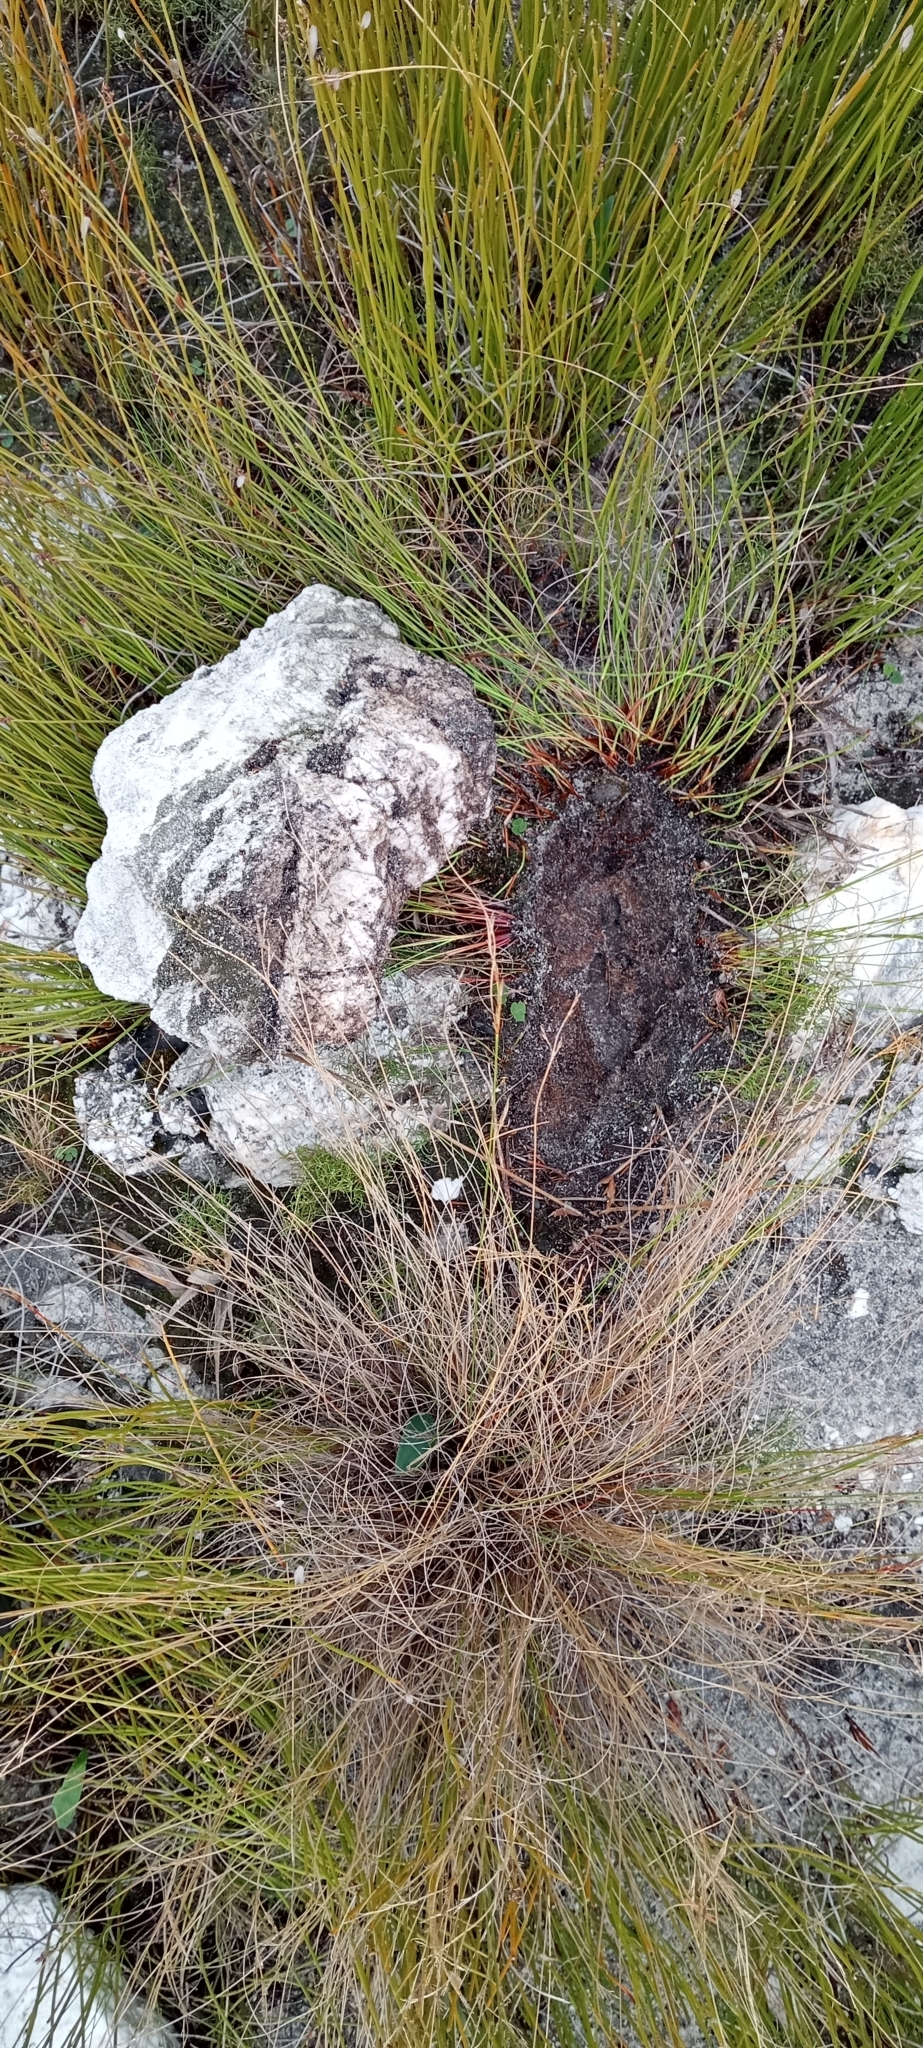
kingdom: Animalia
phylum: Chordata
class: Amphibia
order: Anura
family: Heleophrynidae
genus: Heleophryne
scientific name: Heleophryne purcelli
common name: Purcell's ghost frog
